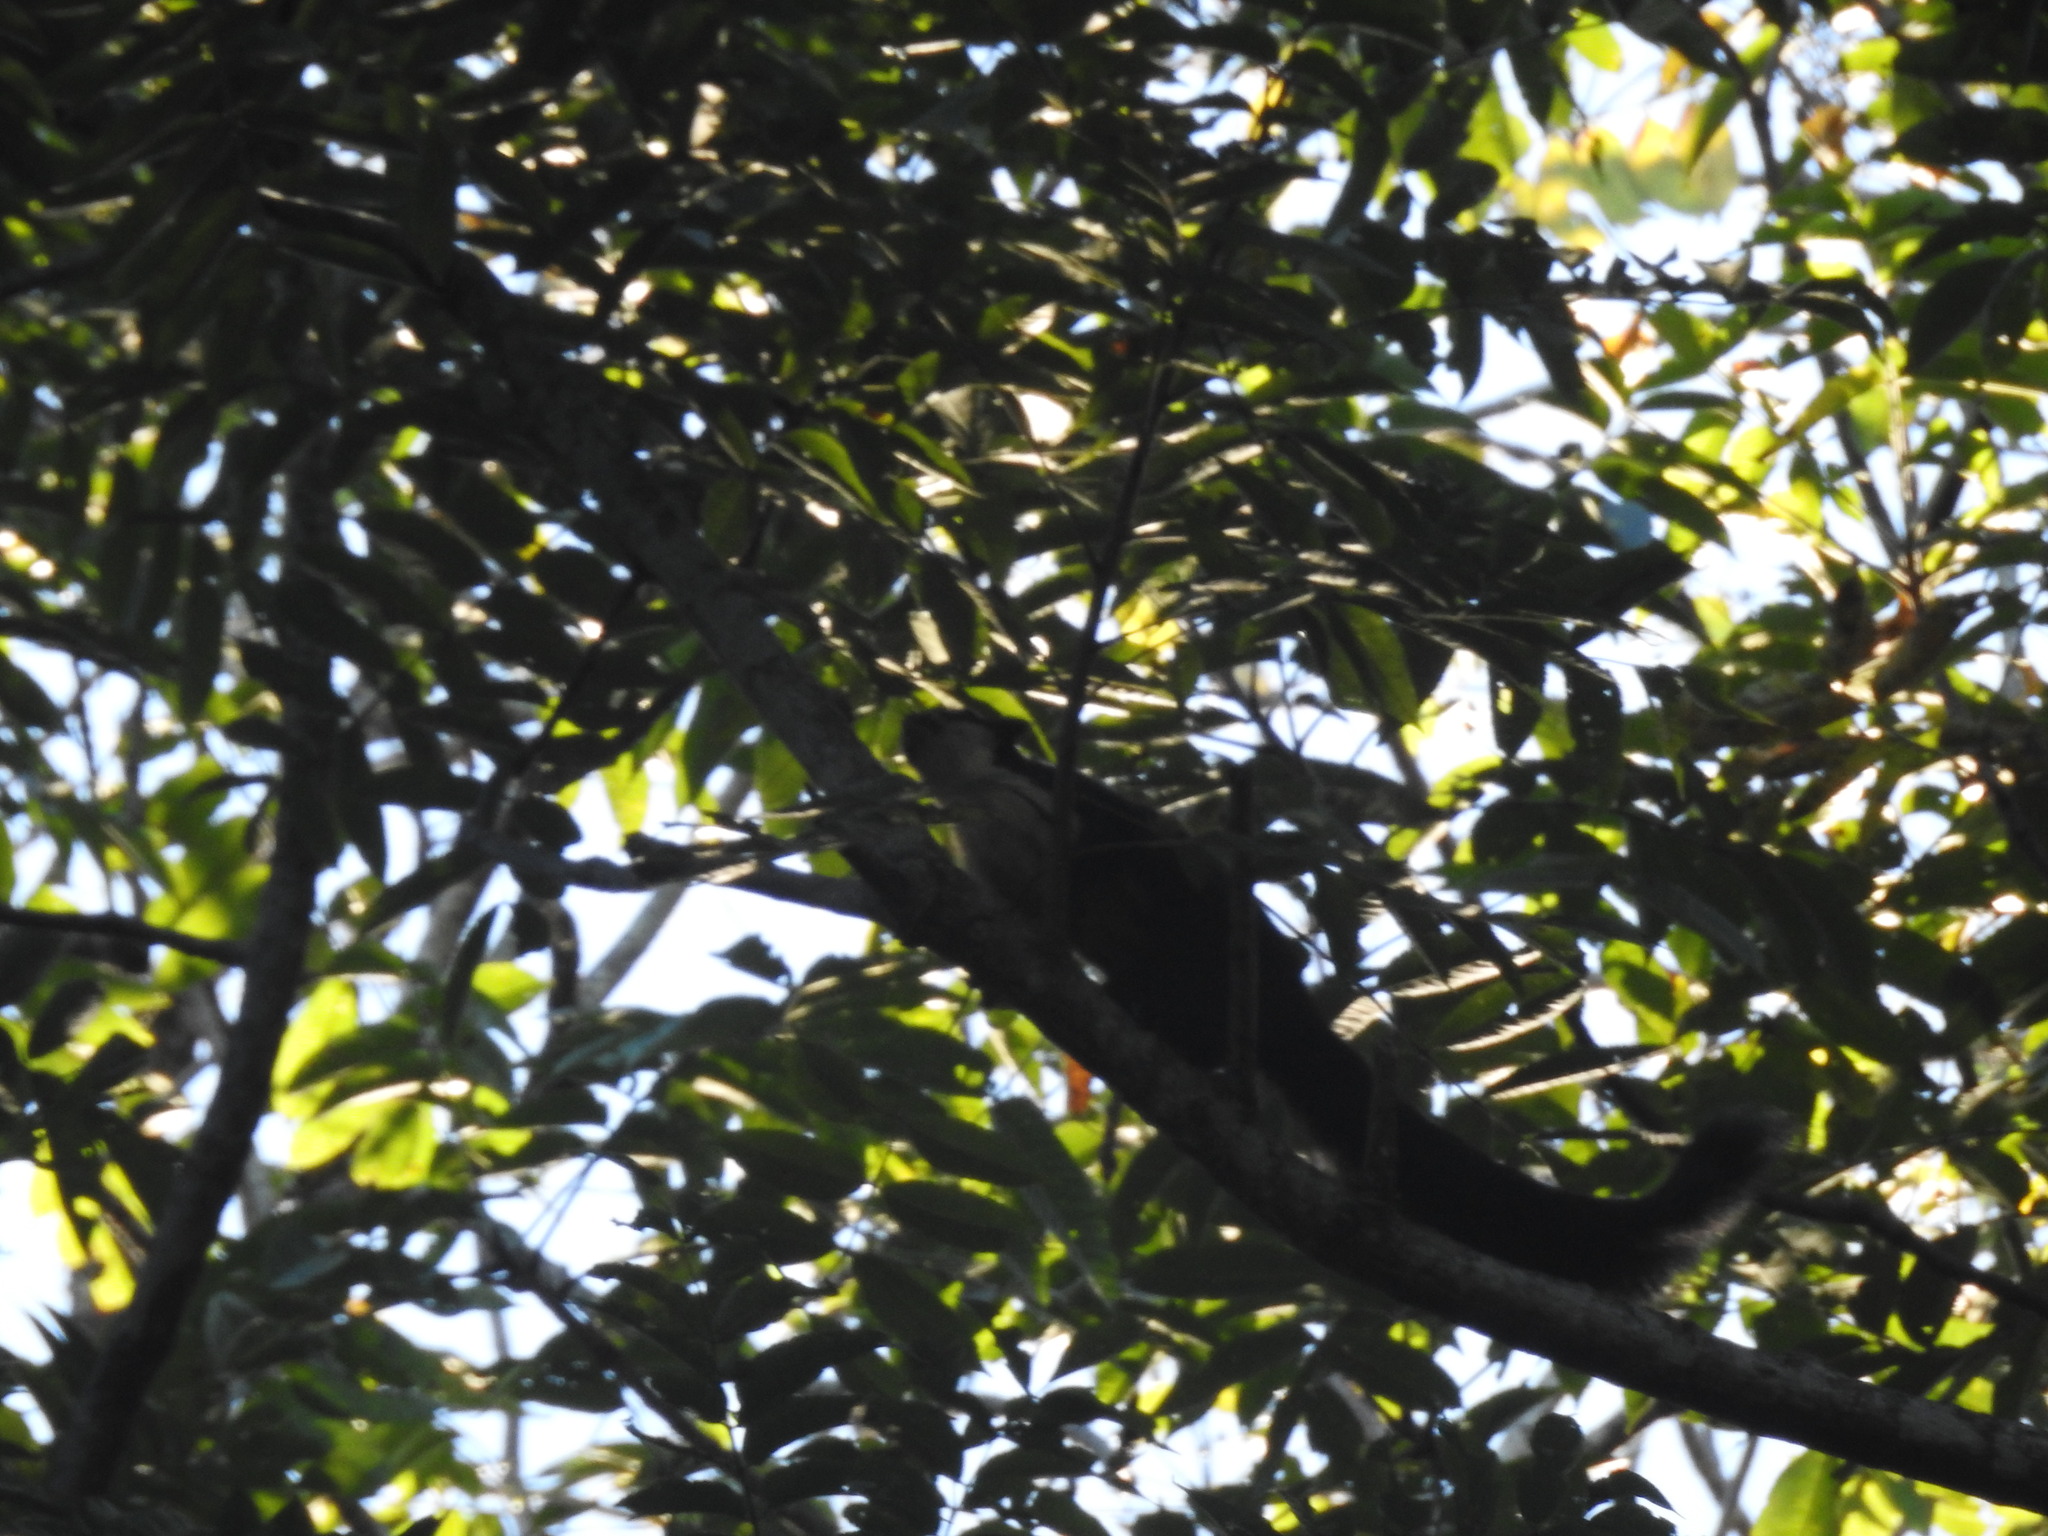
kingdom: Animalia
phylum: Chordata
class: Mammalia
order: Rodentia
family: Sciuridae
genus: Ratufa
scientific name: Ratufa bicolor
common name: Black giant squirrel
